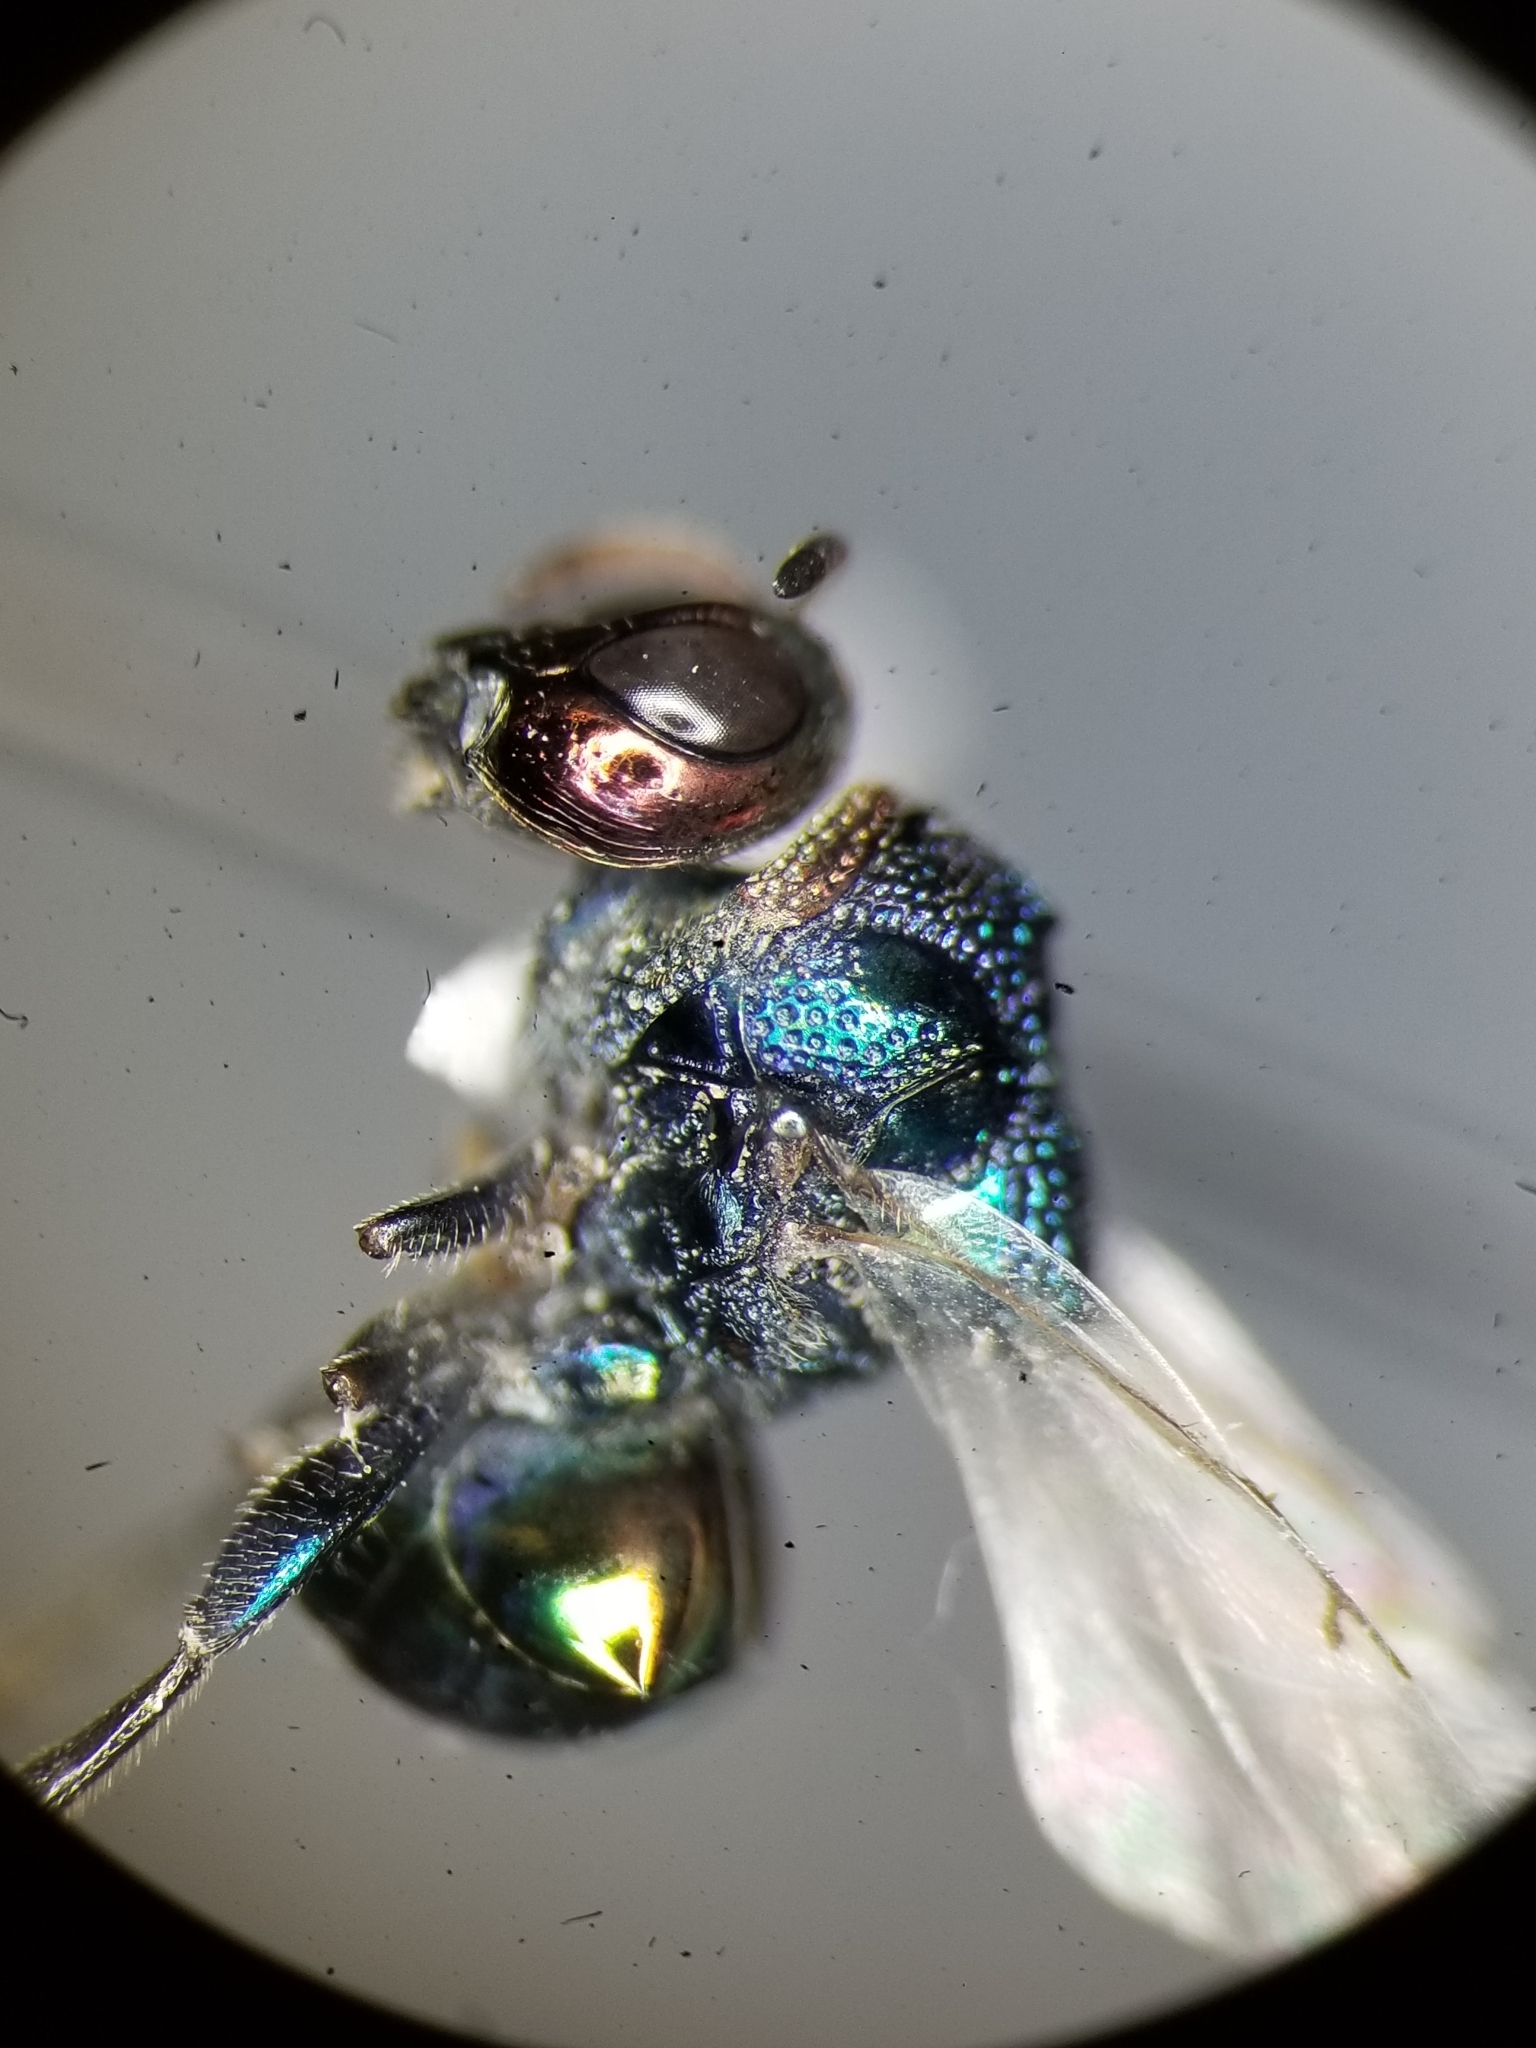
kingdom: Animalia
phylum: Arthropoda
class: Insecta
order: Hymenoptera
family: Perilampidae
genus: Perilampus
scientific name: Perilampus auratus
